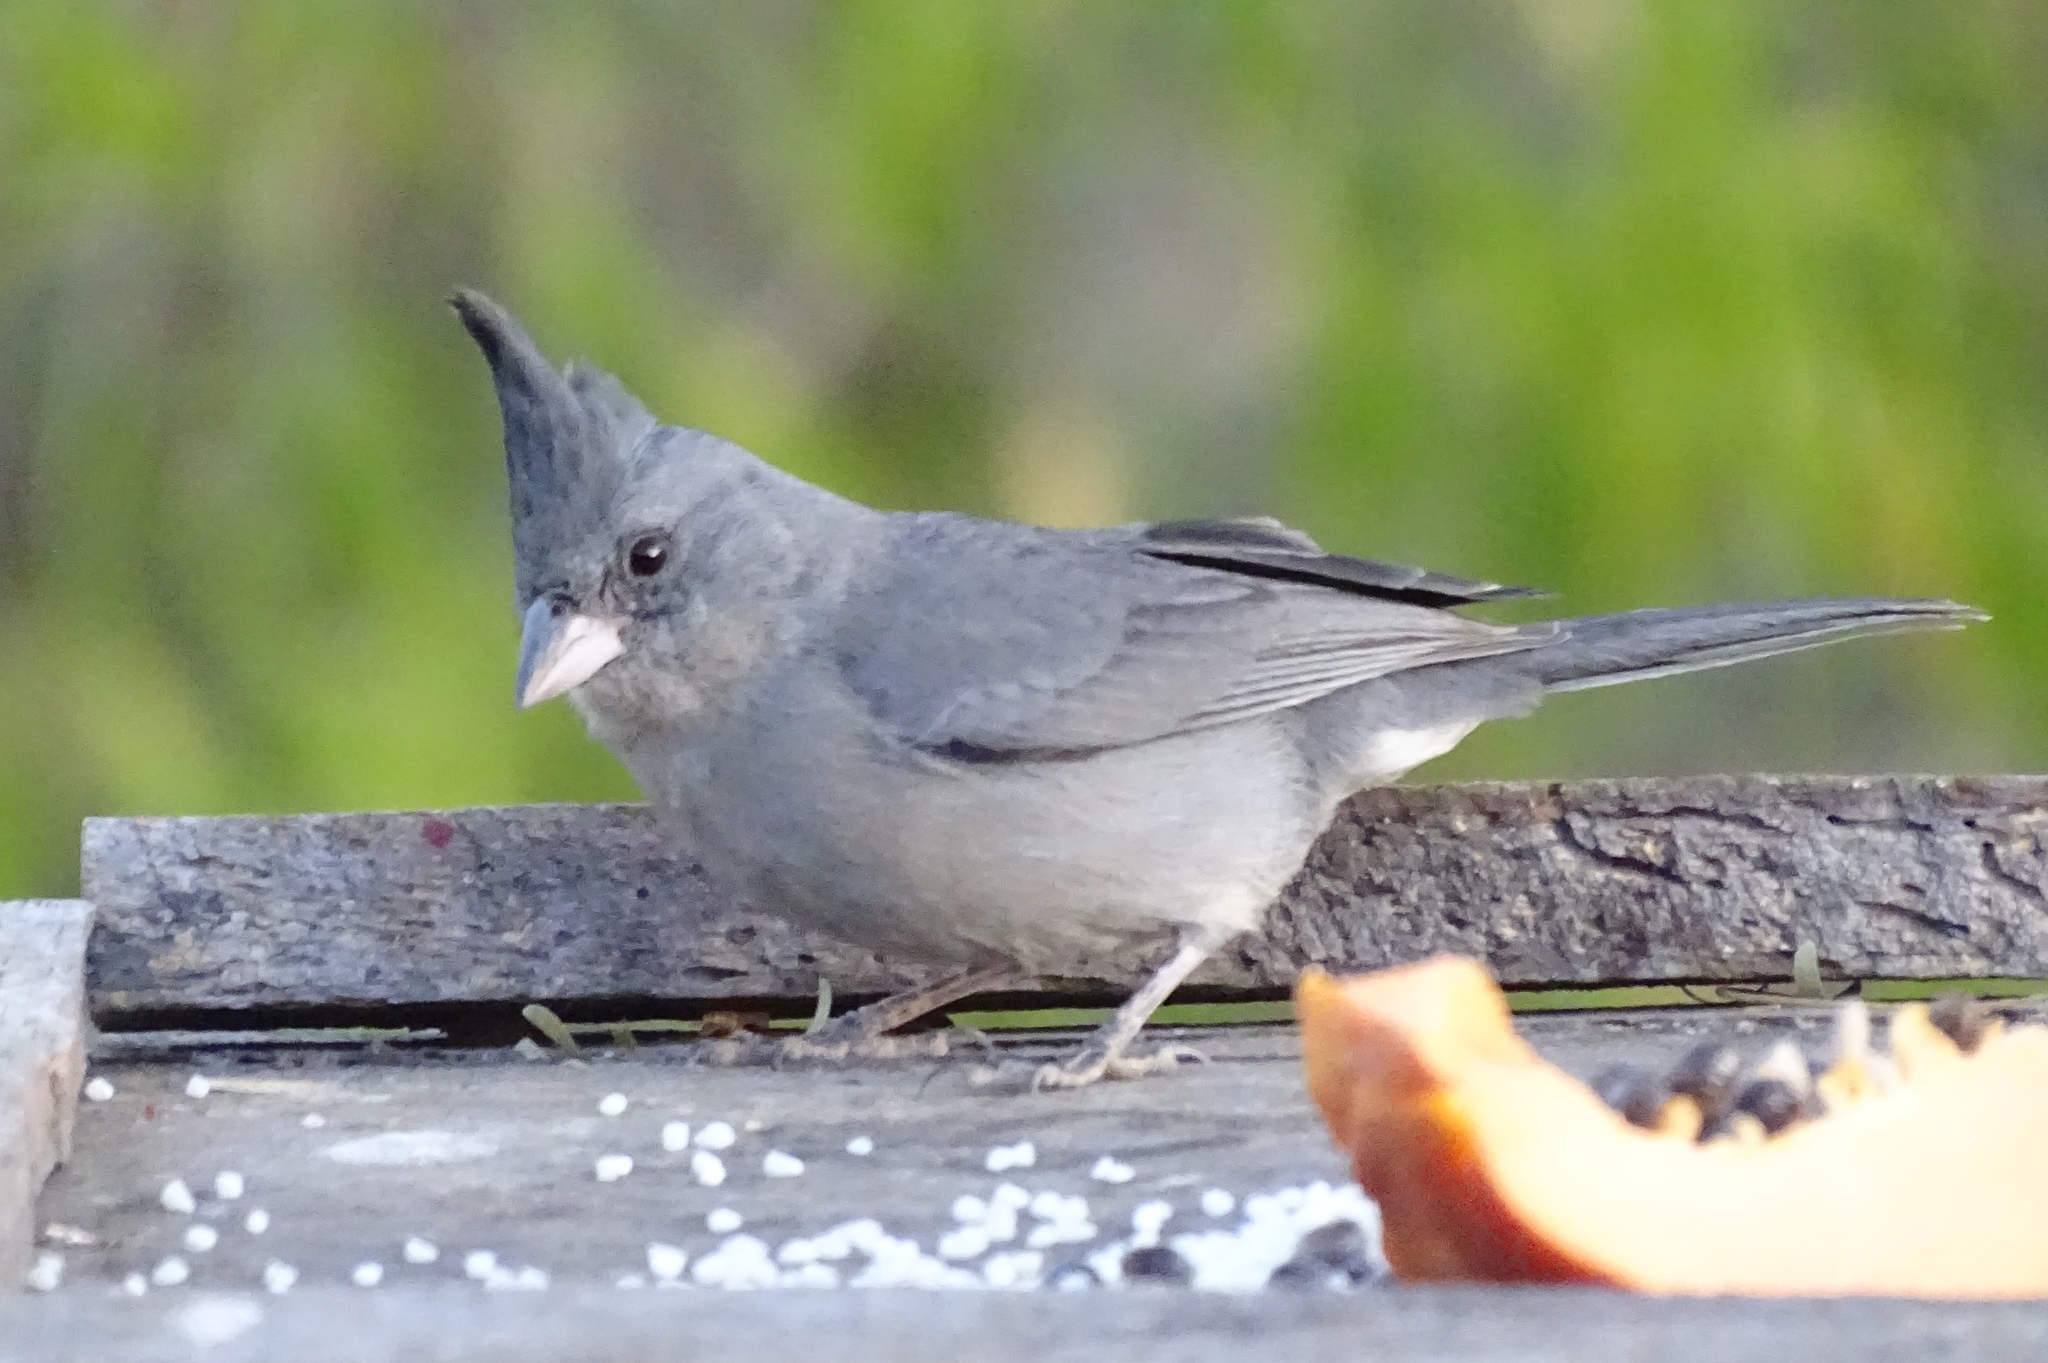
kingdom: Animalia
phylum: Chordata
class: Aves
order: Passeriformes
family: Thraupidae
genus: Lophospingus
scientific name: Lophospingus griseocristatus
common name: Grey-crested finch
